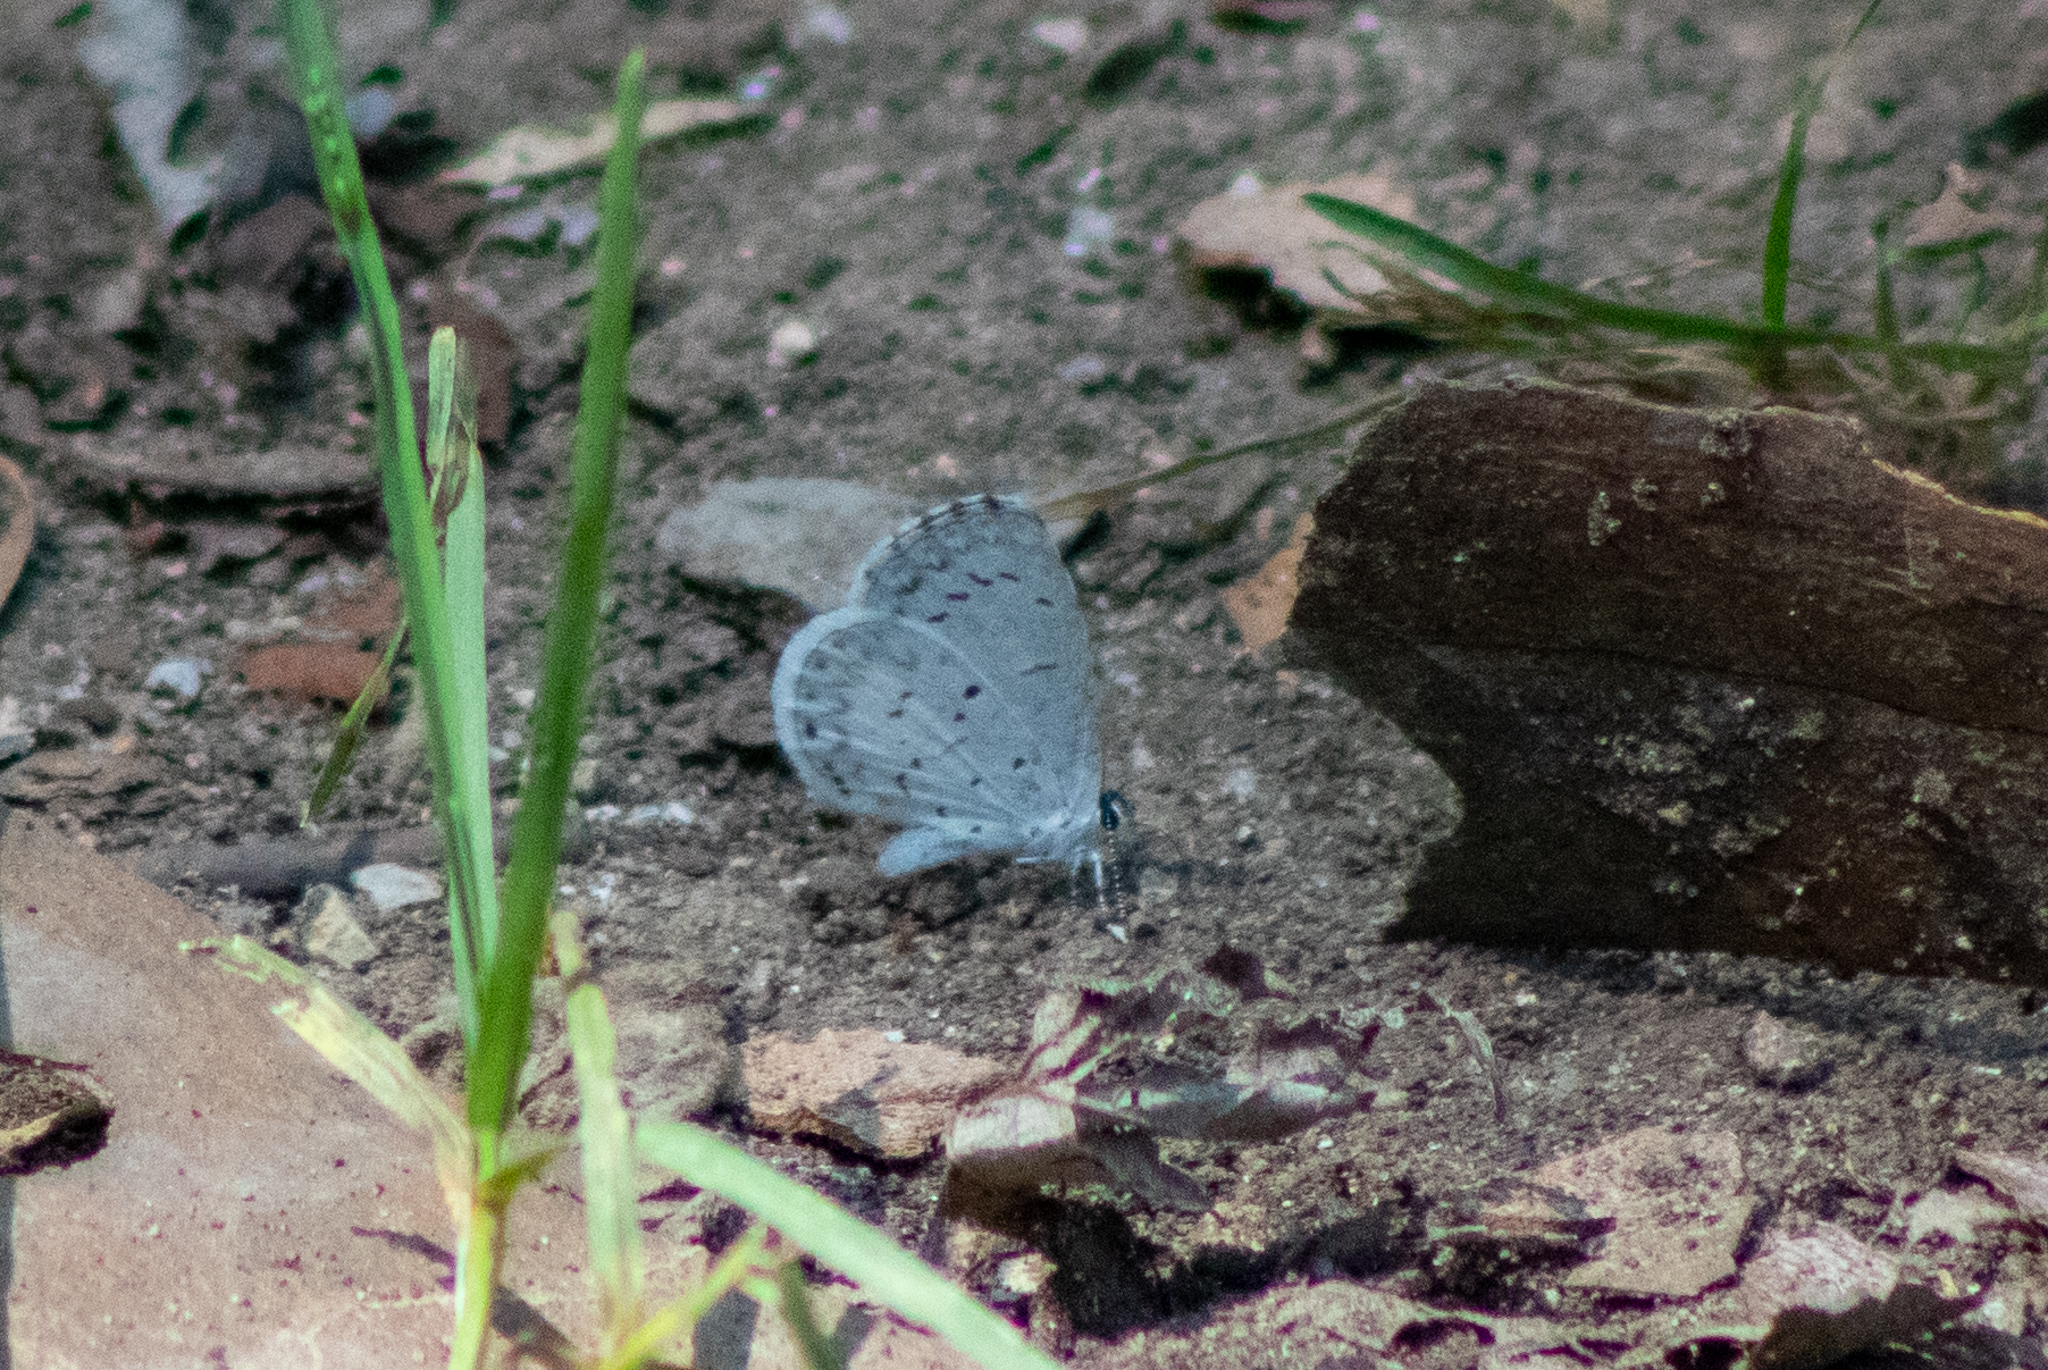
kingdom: Animalia
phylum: Arthropoda
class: Insecta
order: Lepidoptera
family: Lycaenidae
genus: Cyaniris
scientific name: Cyaniris neglecta
